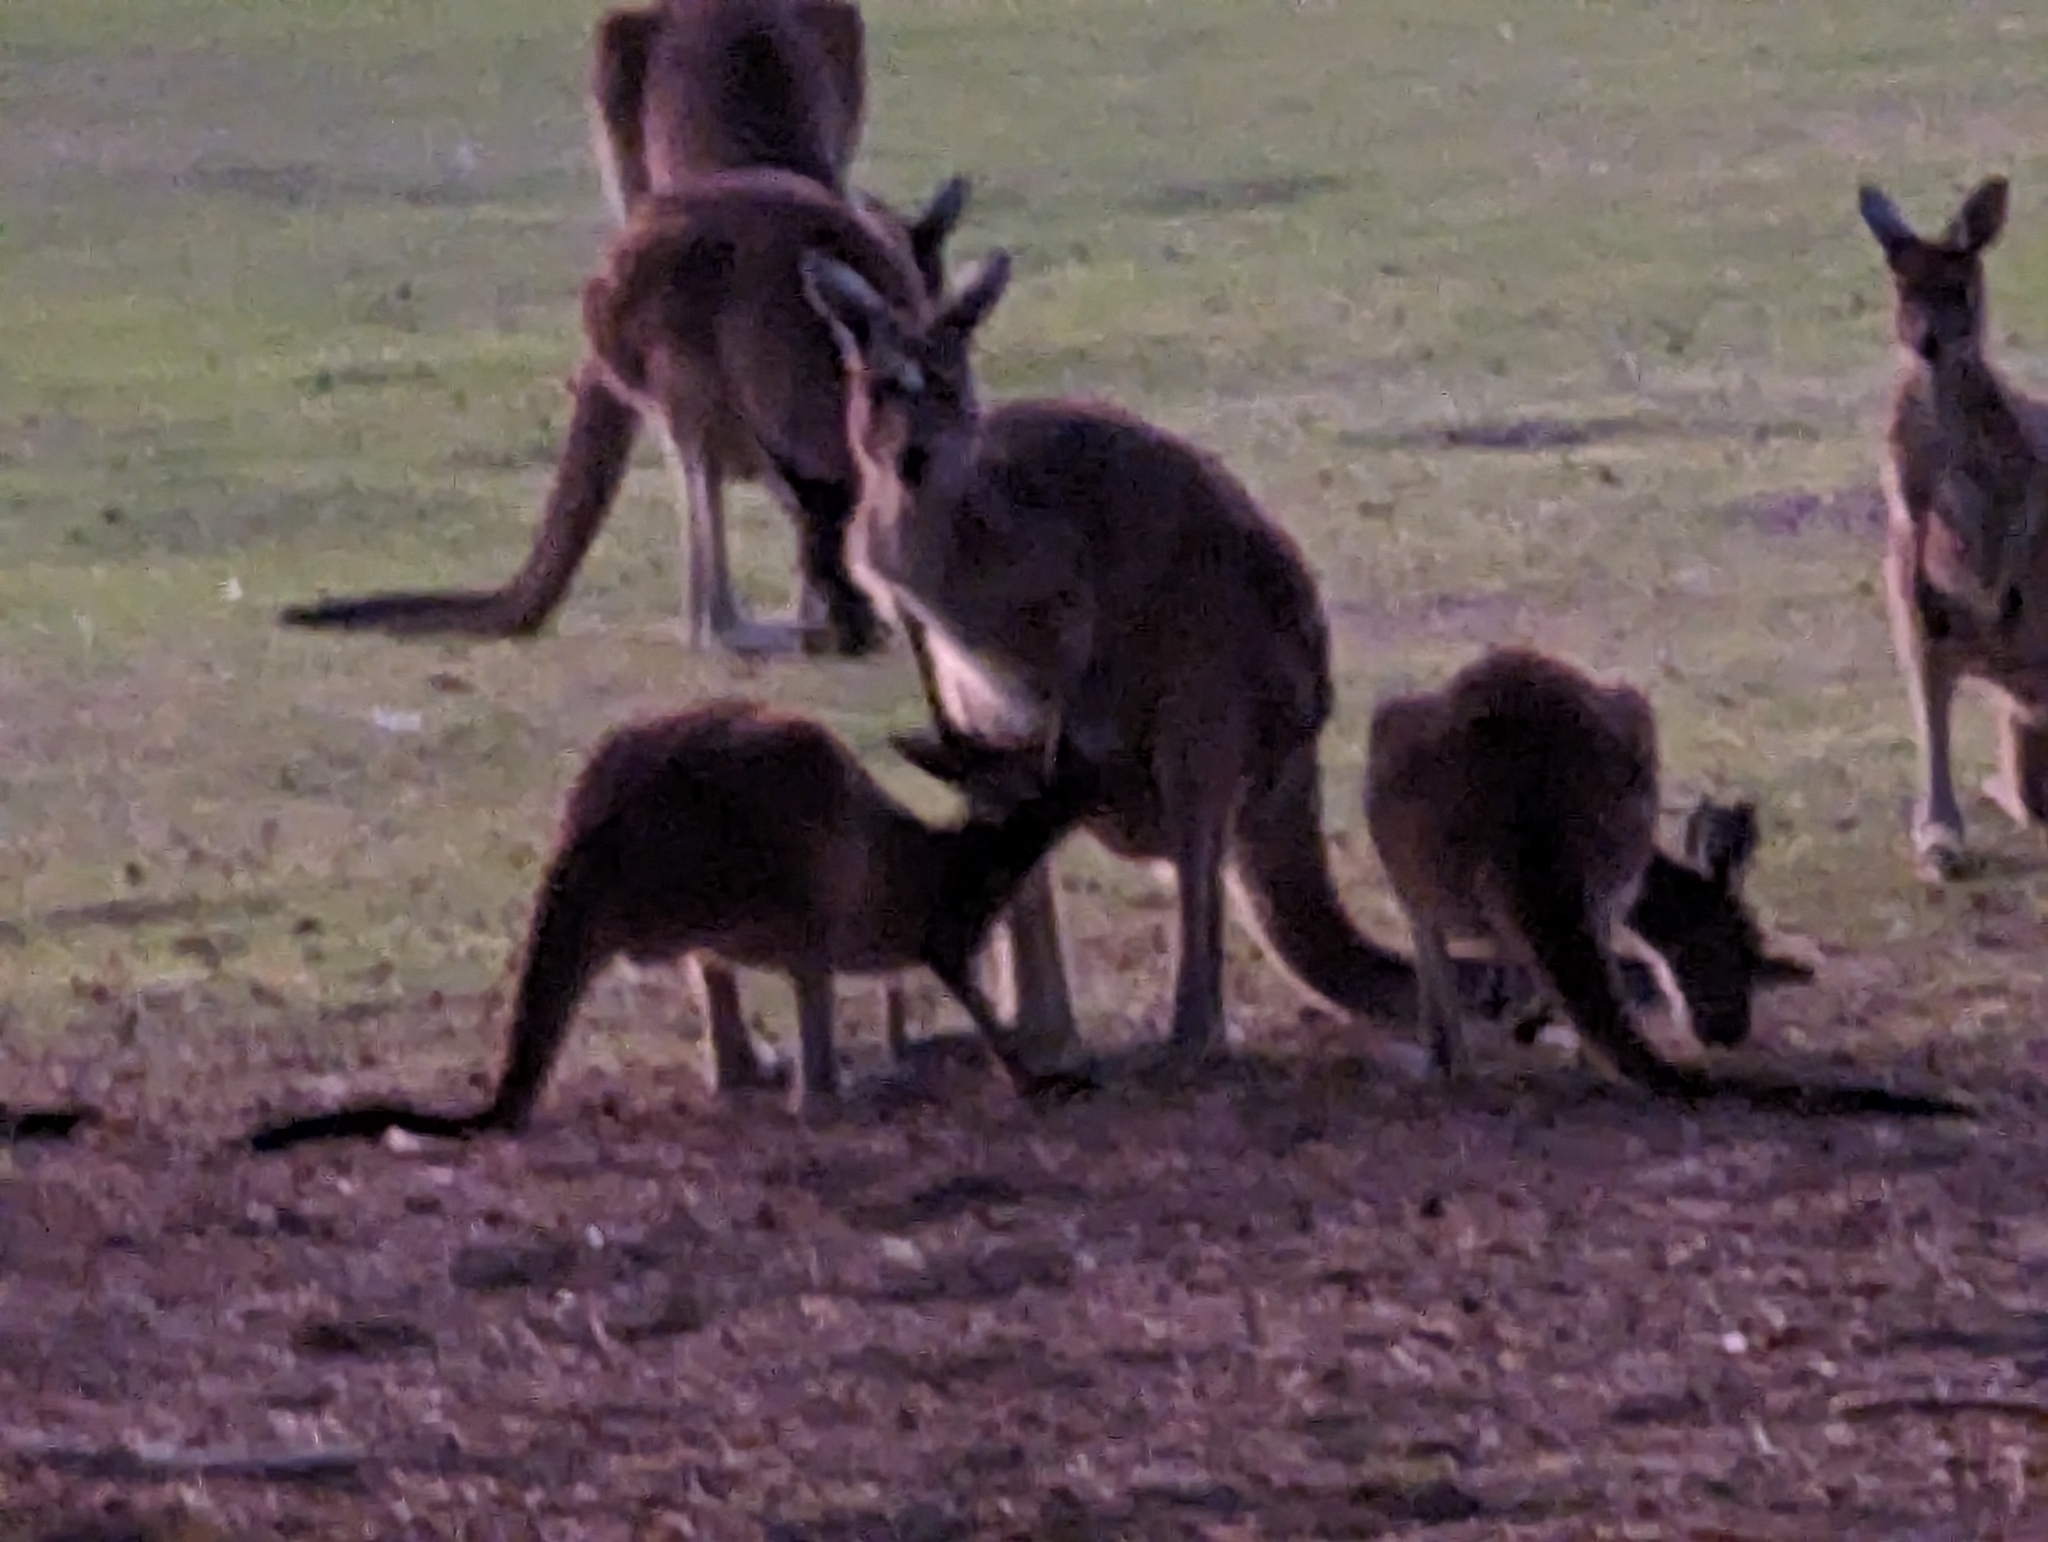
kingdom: Animalia
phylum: Chordata
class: Mammalia
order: Diprotodontia
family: Macropodidae
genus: Macropus
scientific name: Macropus fuliginosus
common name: Western grey kangaroo
